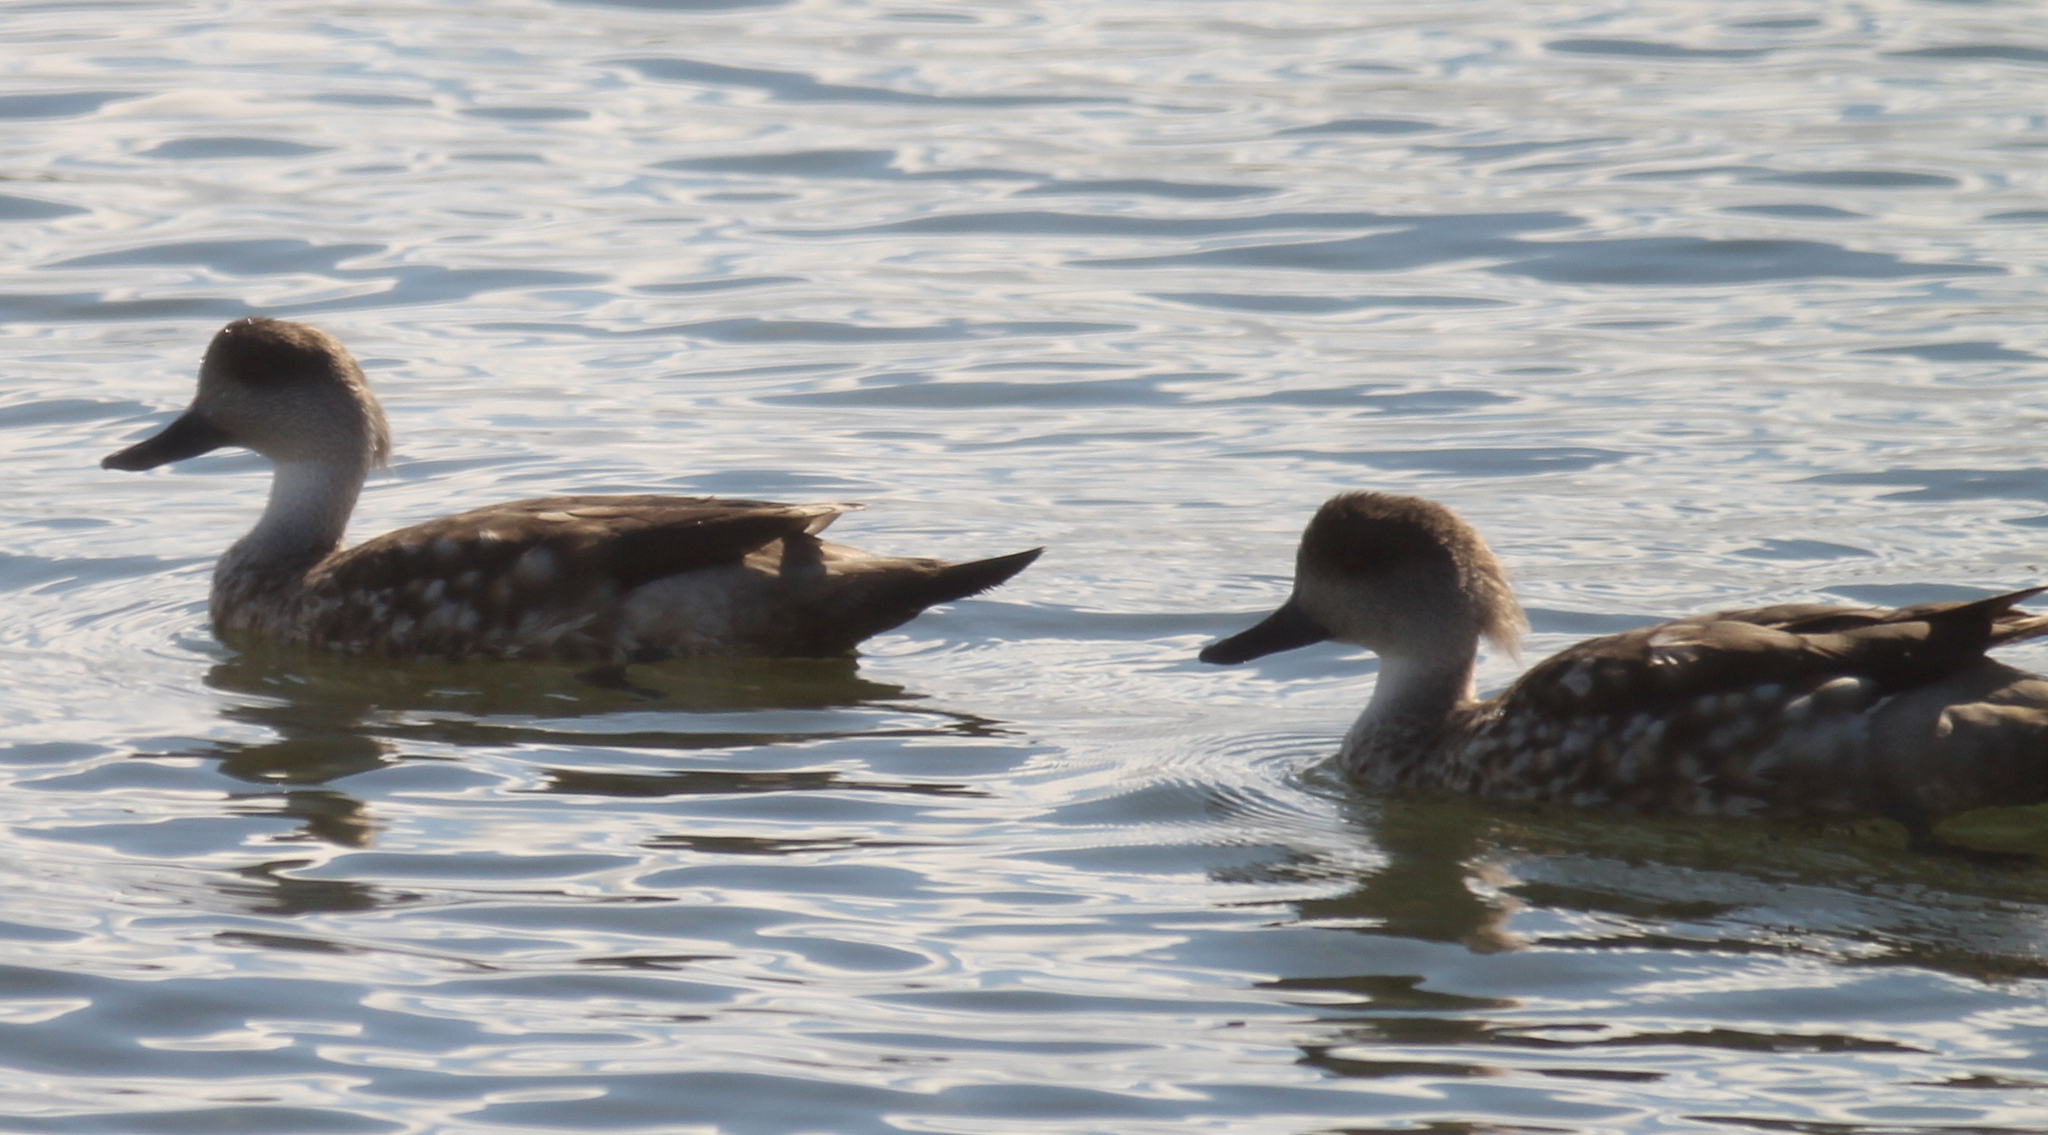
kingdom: Animalia
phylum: Chordata
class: Aves
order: Anseriformes
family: Anatidae
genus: Lophonetta
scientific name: Lophonetta specularioides
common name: Crested duck
